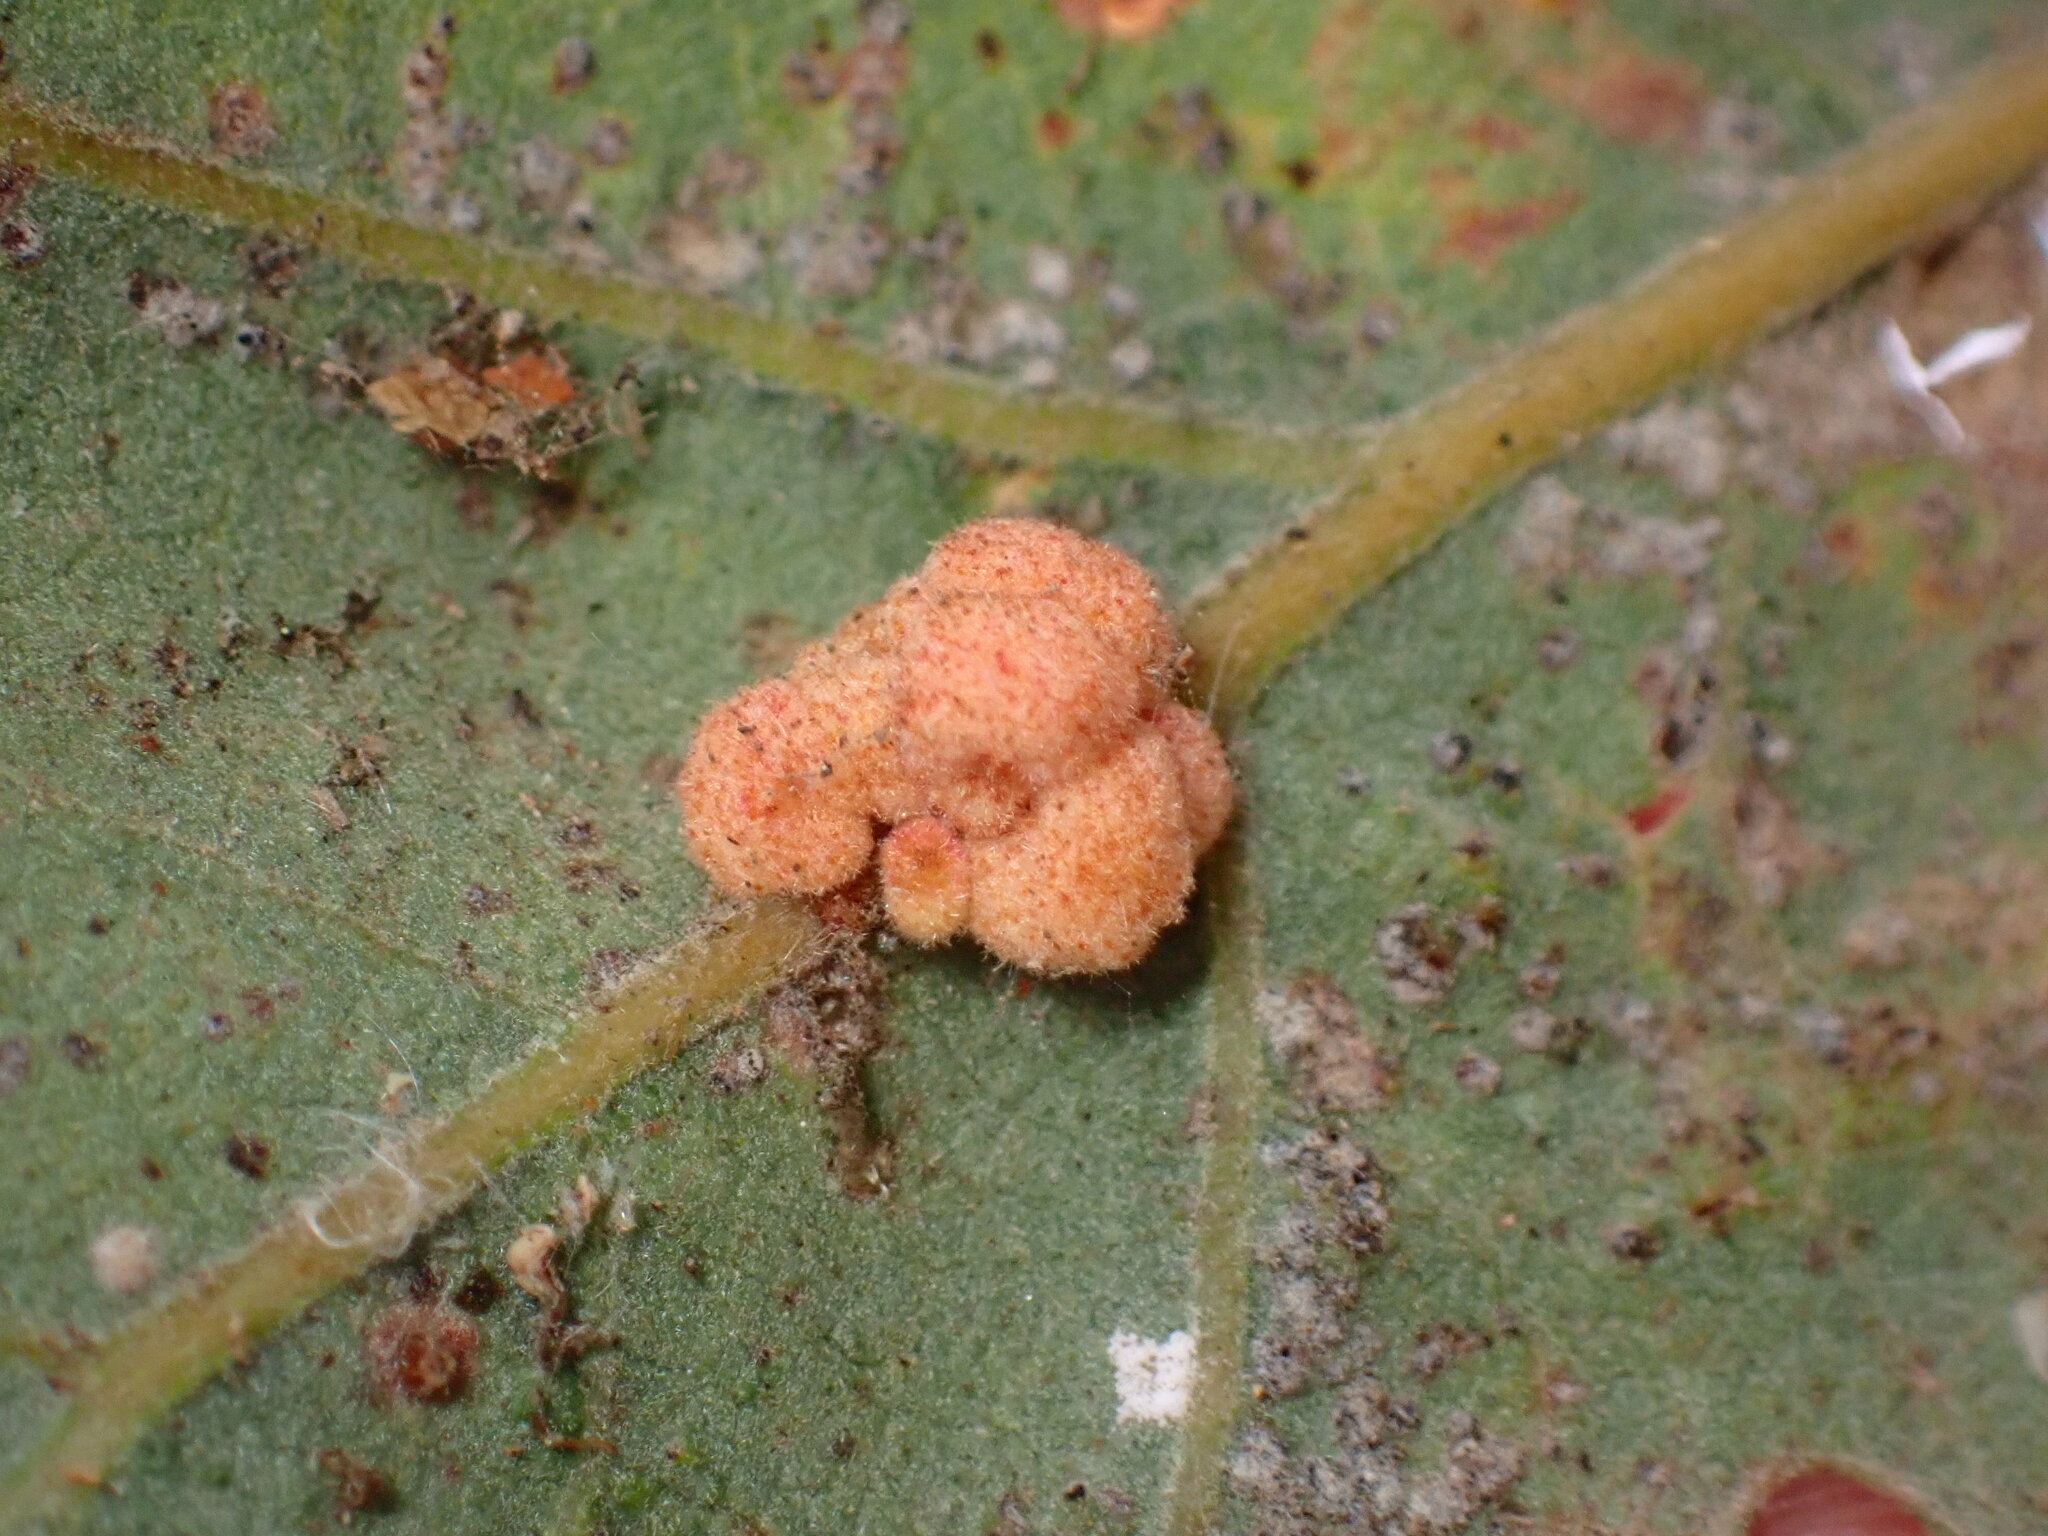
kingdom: Animalia
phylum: Arthropoda
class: Insecta
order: Hymenoptera
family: Cynipidae
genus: Andricus
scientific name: Andricus
